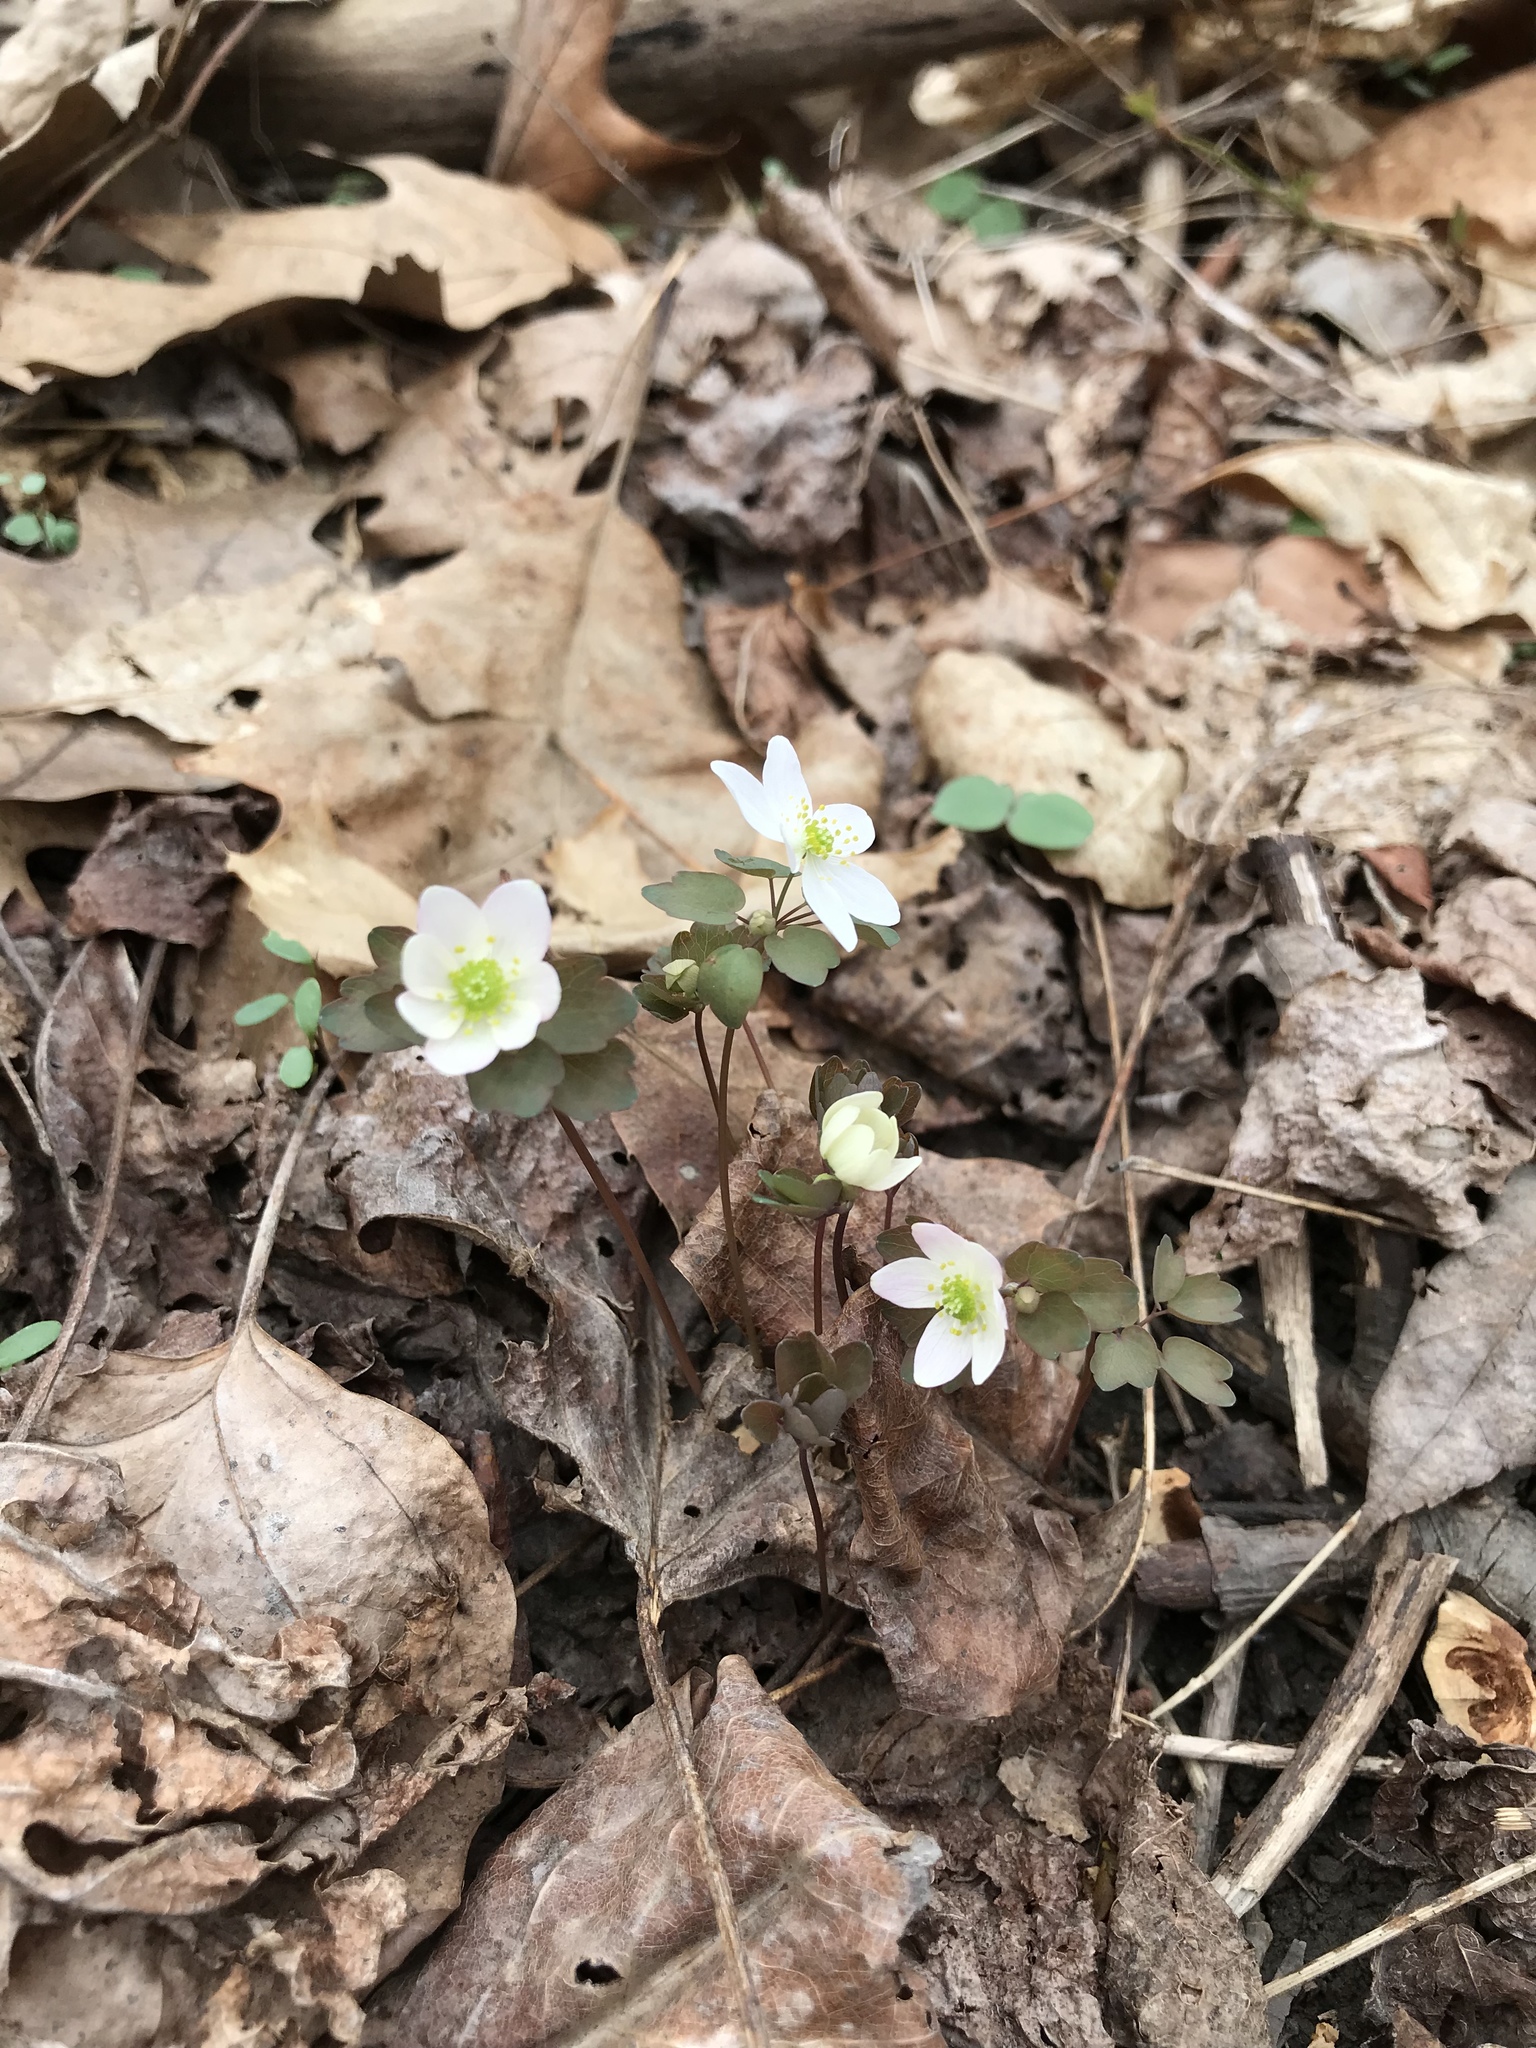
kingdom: Plantae
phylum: Tracheophyta
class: Magnoliopsida
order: Ranunculales
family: Ranunculaceae
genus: Thalictrum
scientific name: Thalictrum thalictroides
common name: Rue-anemone
